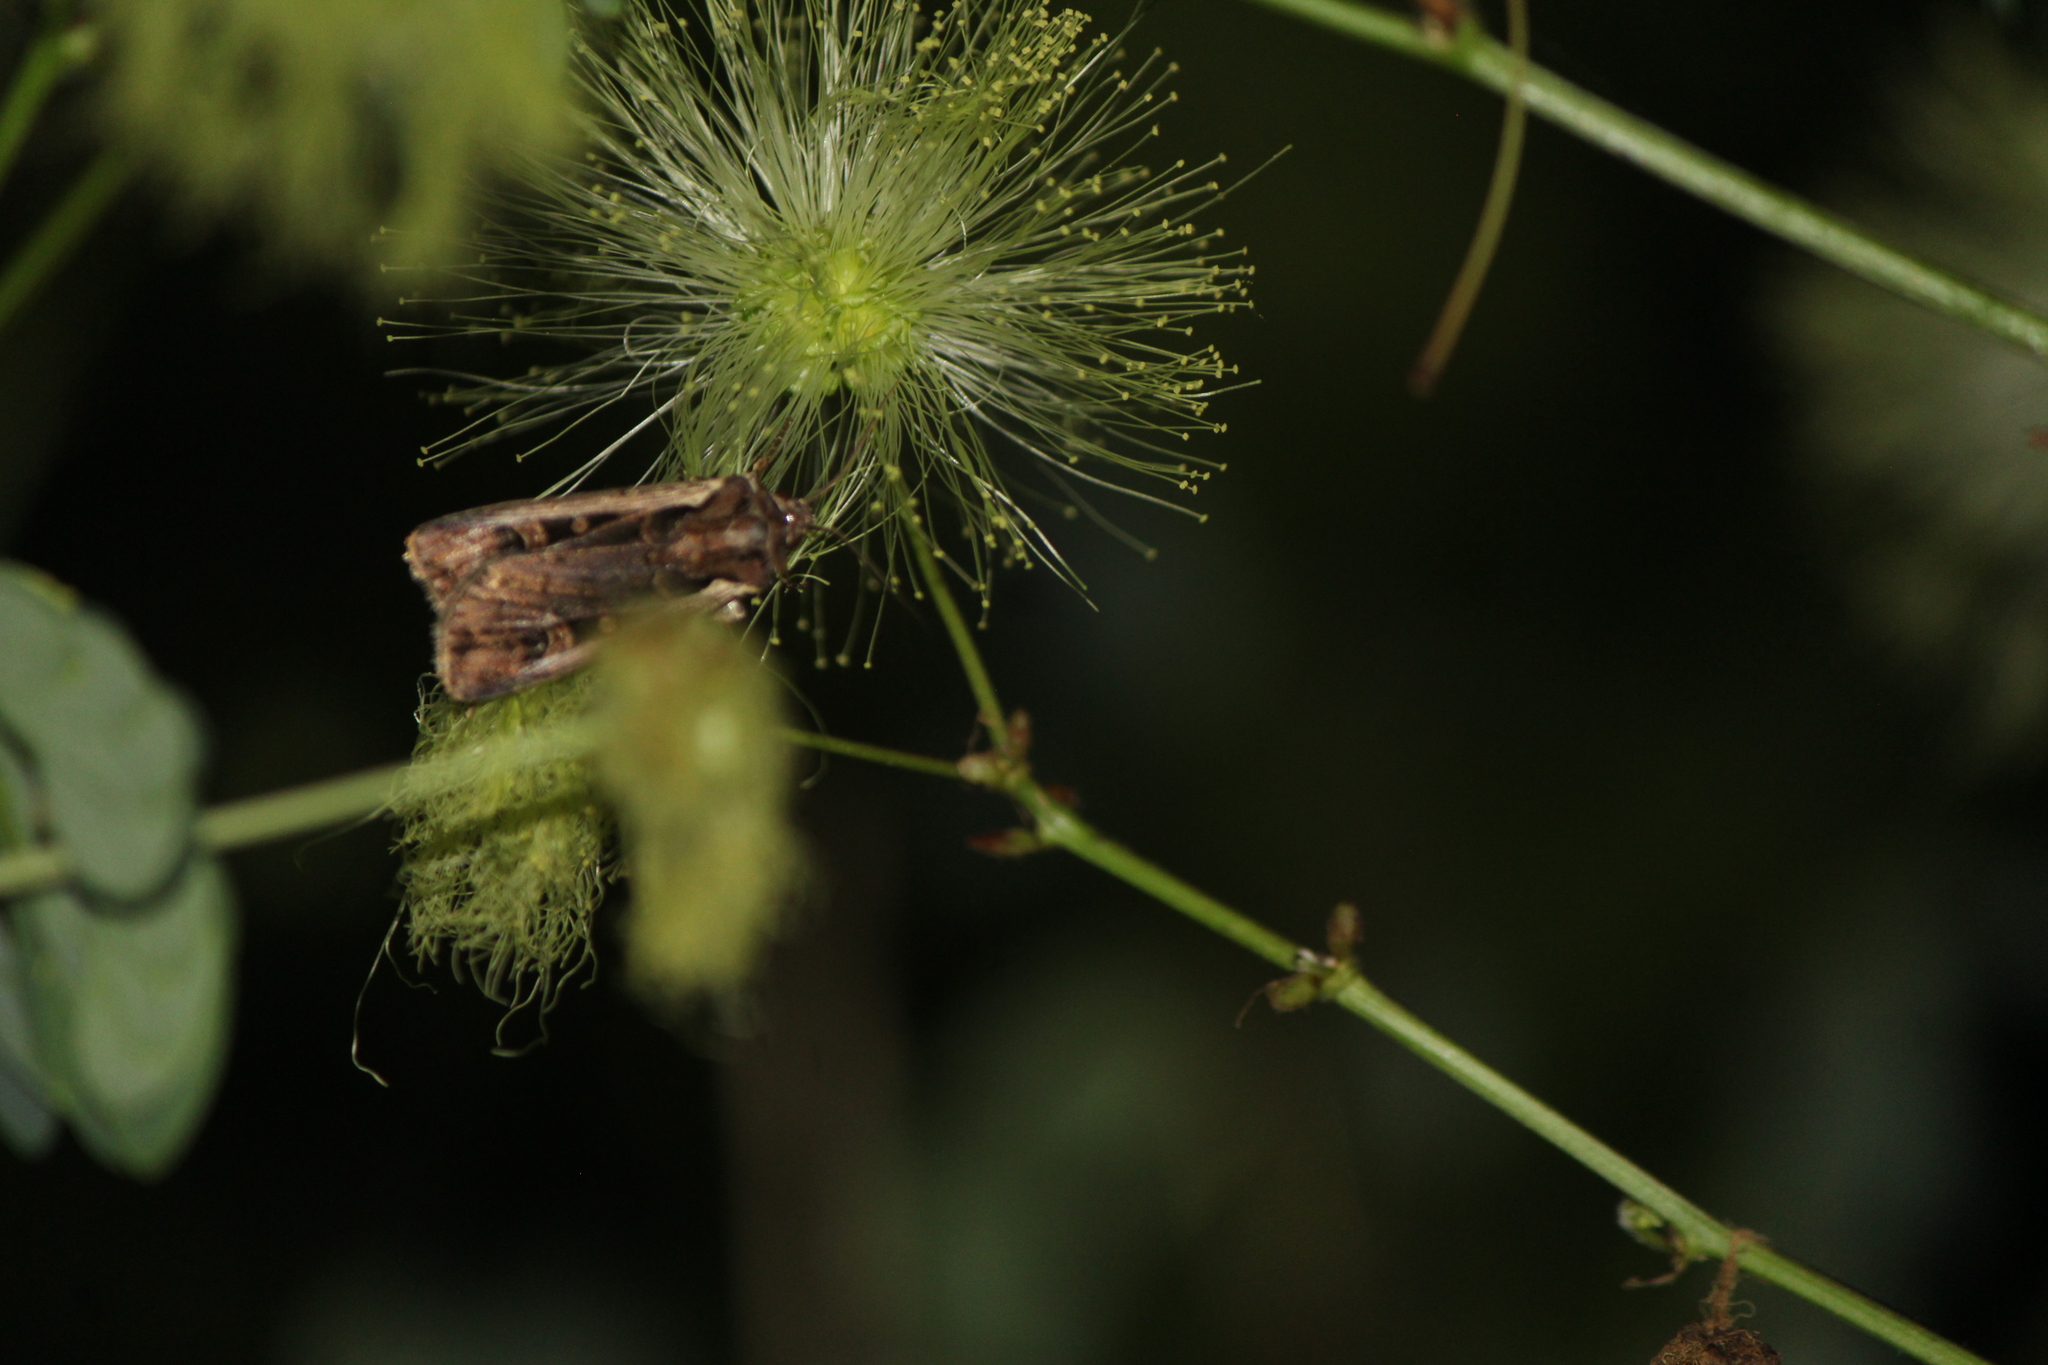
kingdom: Animalia
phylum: Arthropoda
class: Insecta
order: Lepidoptera
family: Noctuidae
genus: Striacosta
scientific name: Striacosta albicosta
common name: Western bean cutworm moth
